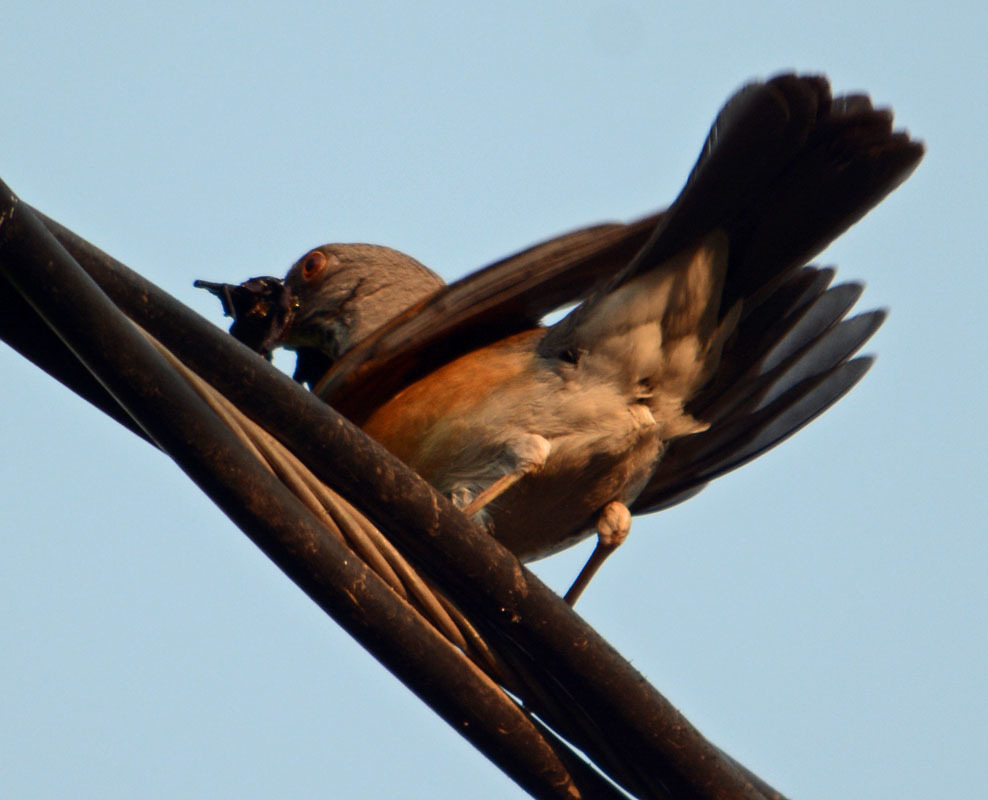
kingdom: Animalia
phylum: Chordata
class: Aves
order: Passeriformes
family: Turdidae
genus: Turdus
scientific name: Turdus rufopalliatus
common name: Rufous-backed robin
